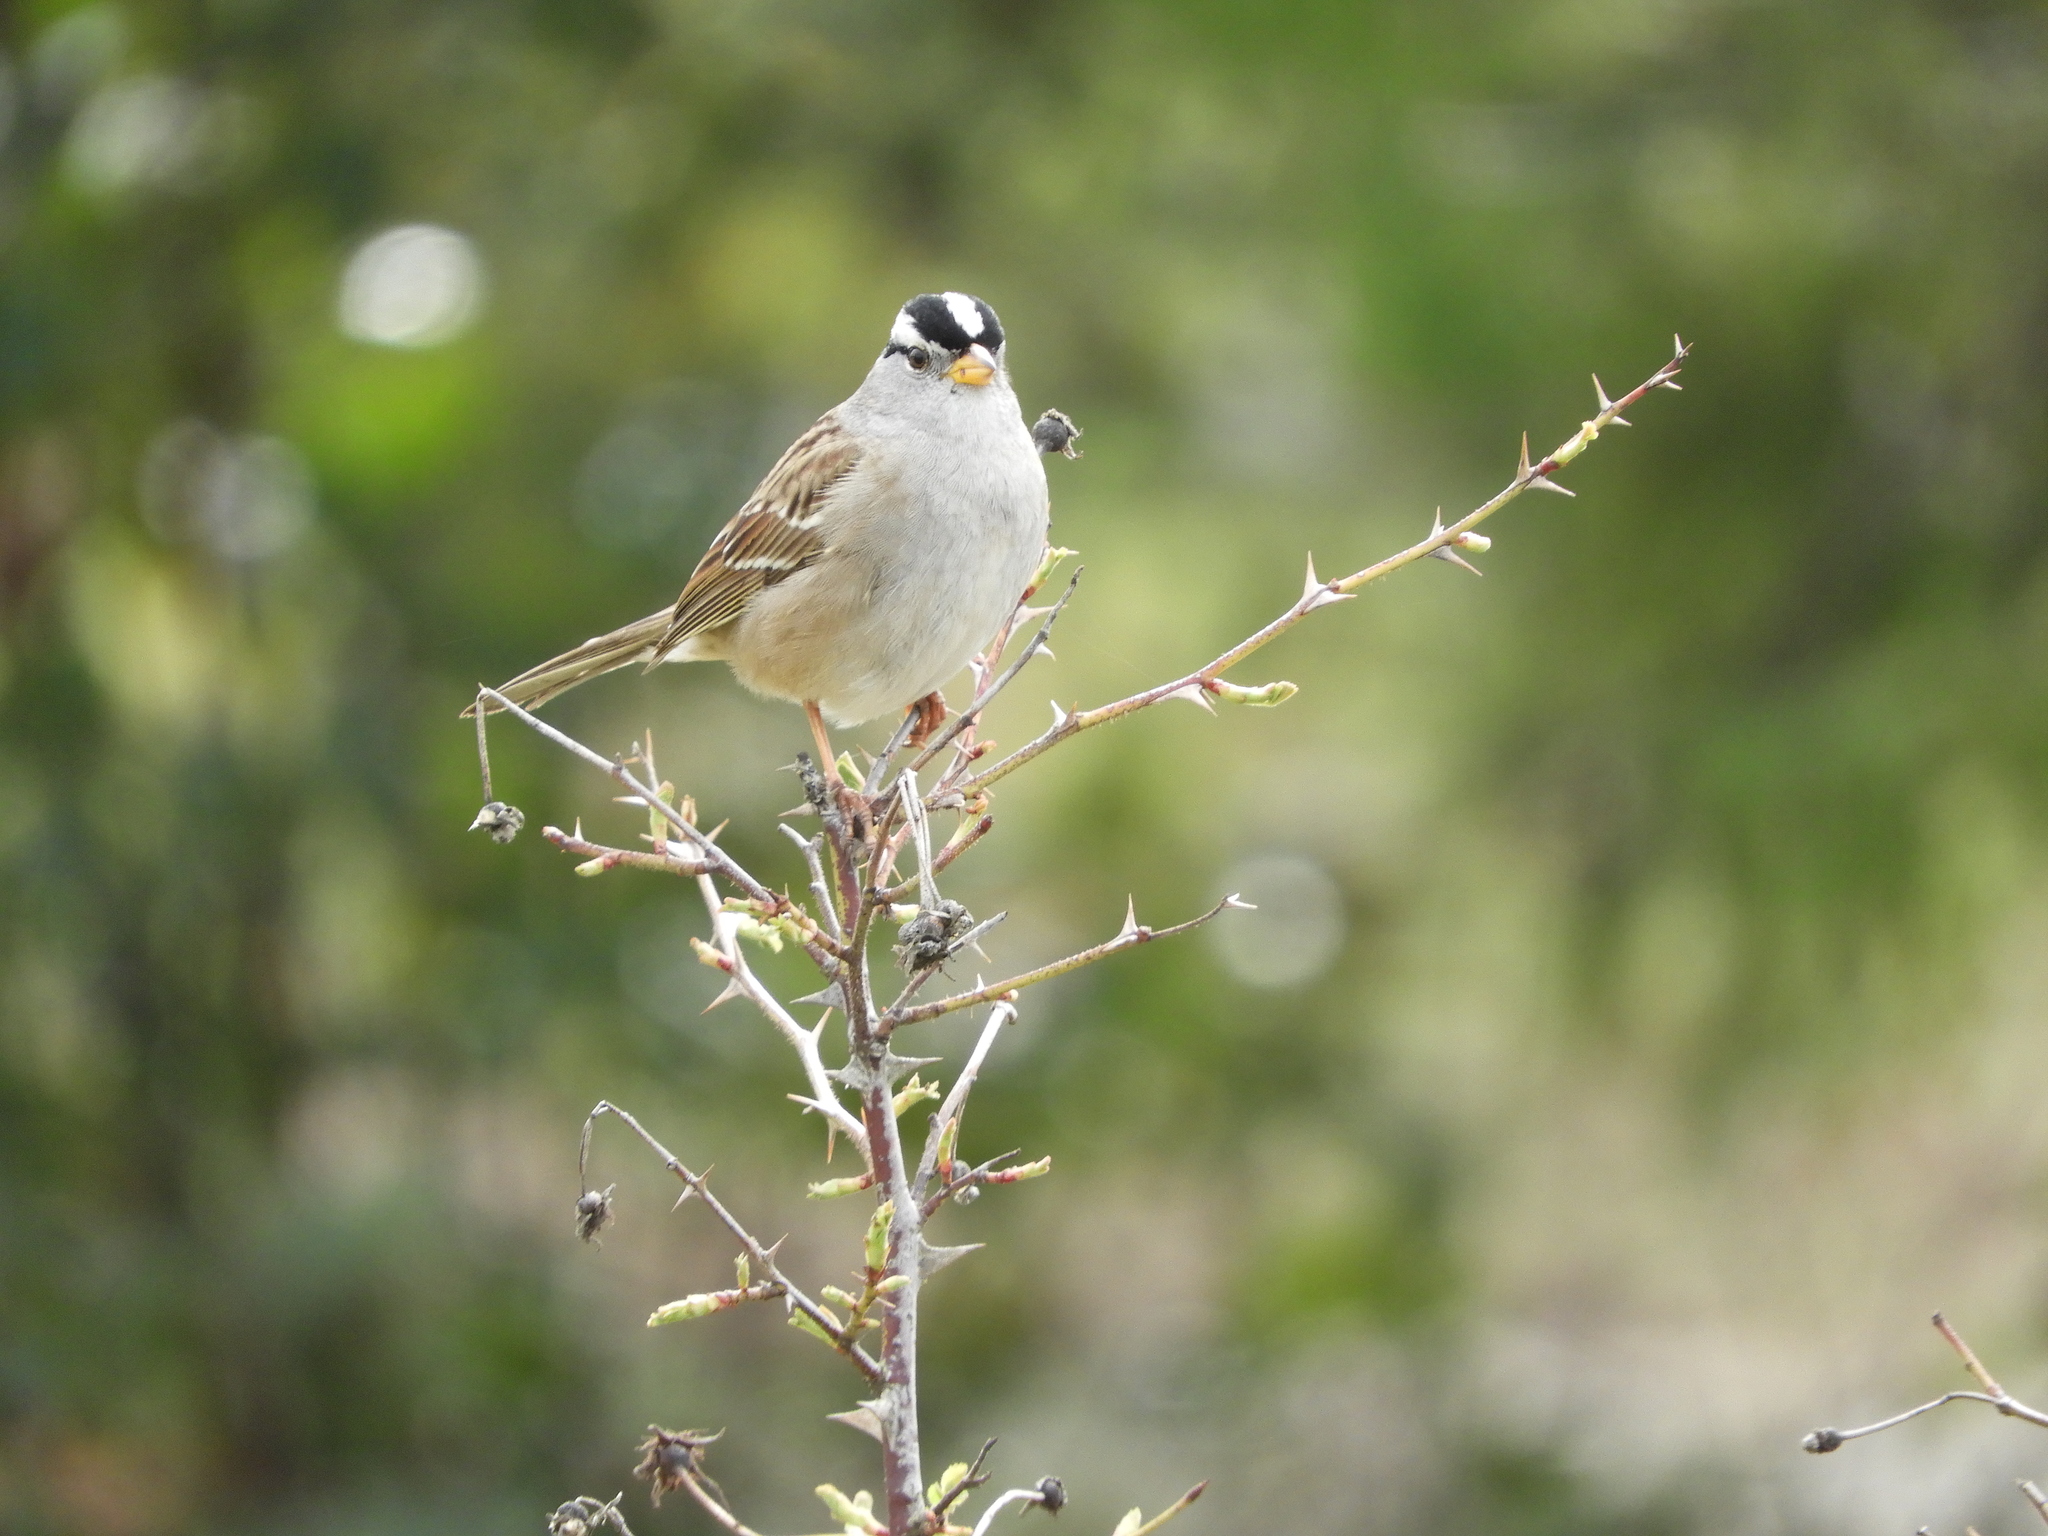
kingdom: Animalia
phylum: Chordata
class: Aves
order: Passeriformes
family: Passerellidae
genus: Zonotrichia
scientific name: Zonotrichia leucophrys
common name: White-crowned sparrow
